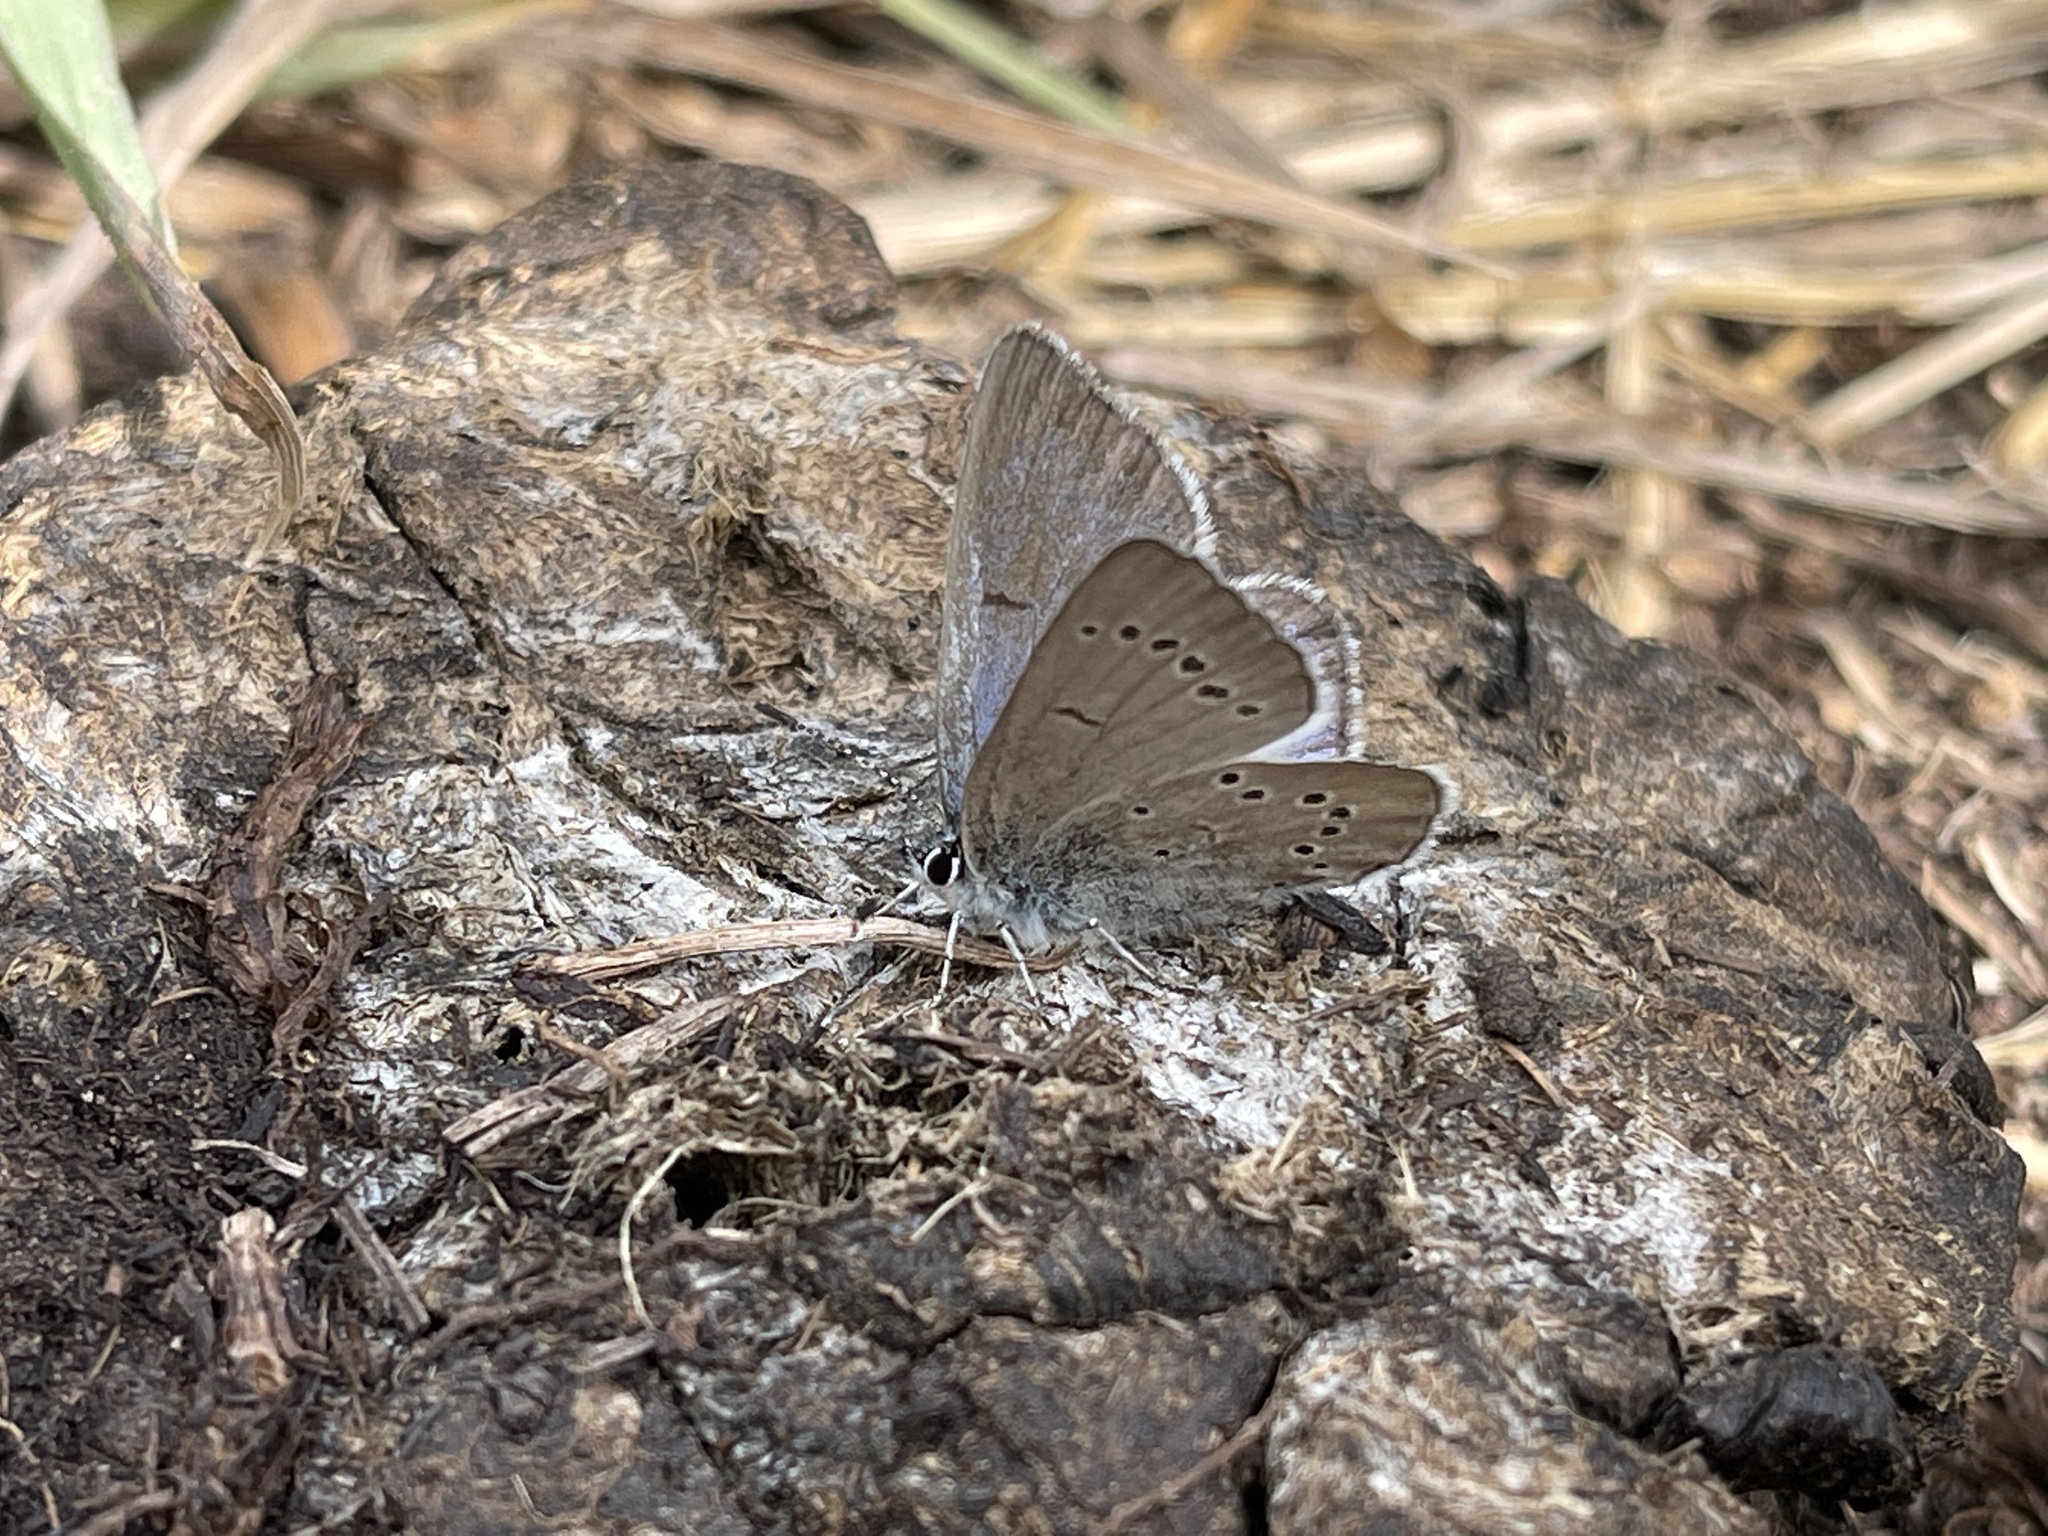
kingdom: Animalia
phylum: Arthropoda
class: Insecta
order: Lepidoptera
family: Lycaenidae
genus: Glaucopsyche
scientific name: Glaucopsyche lygdamus
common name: Silvery blue
